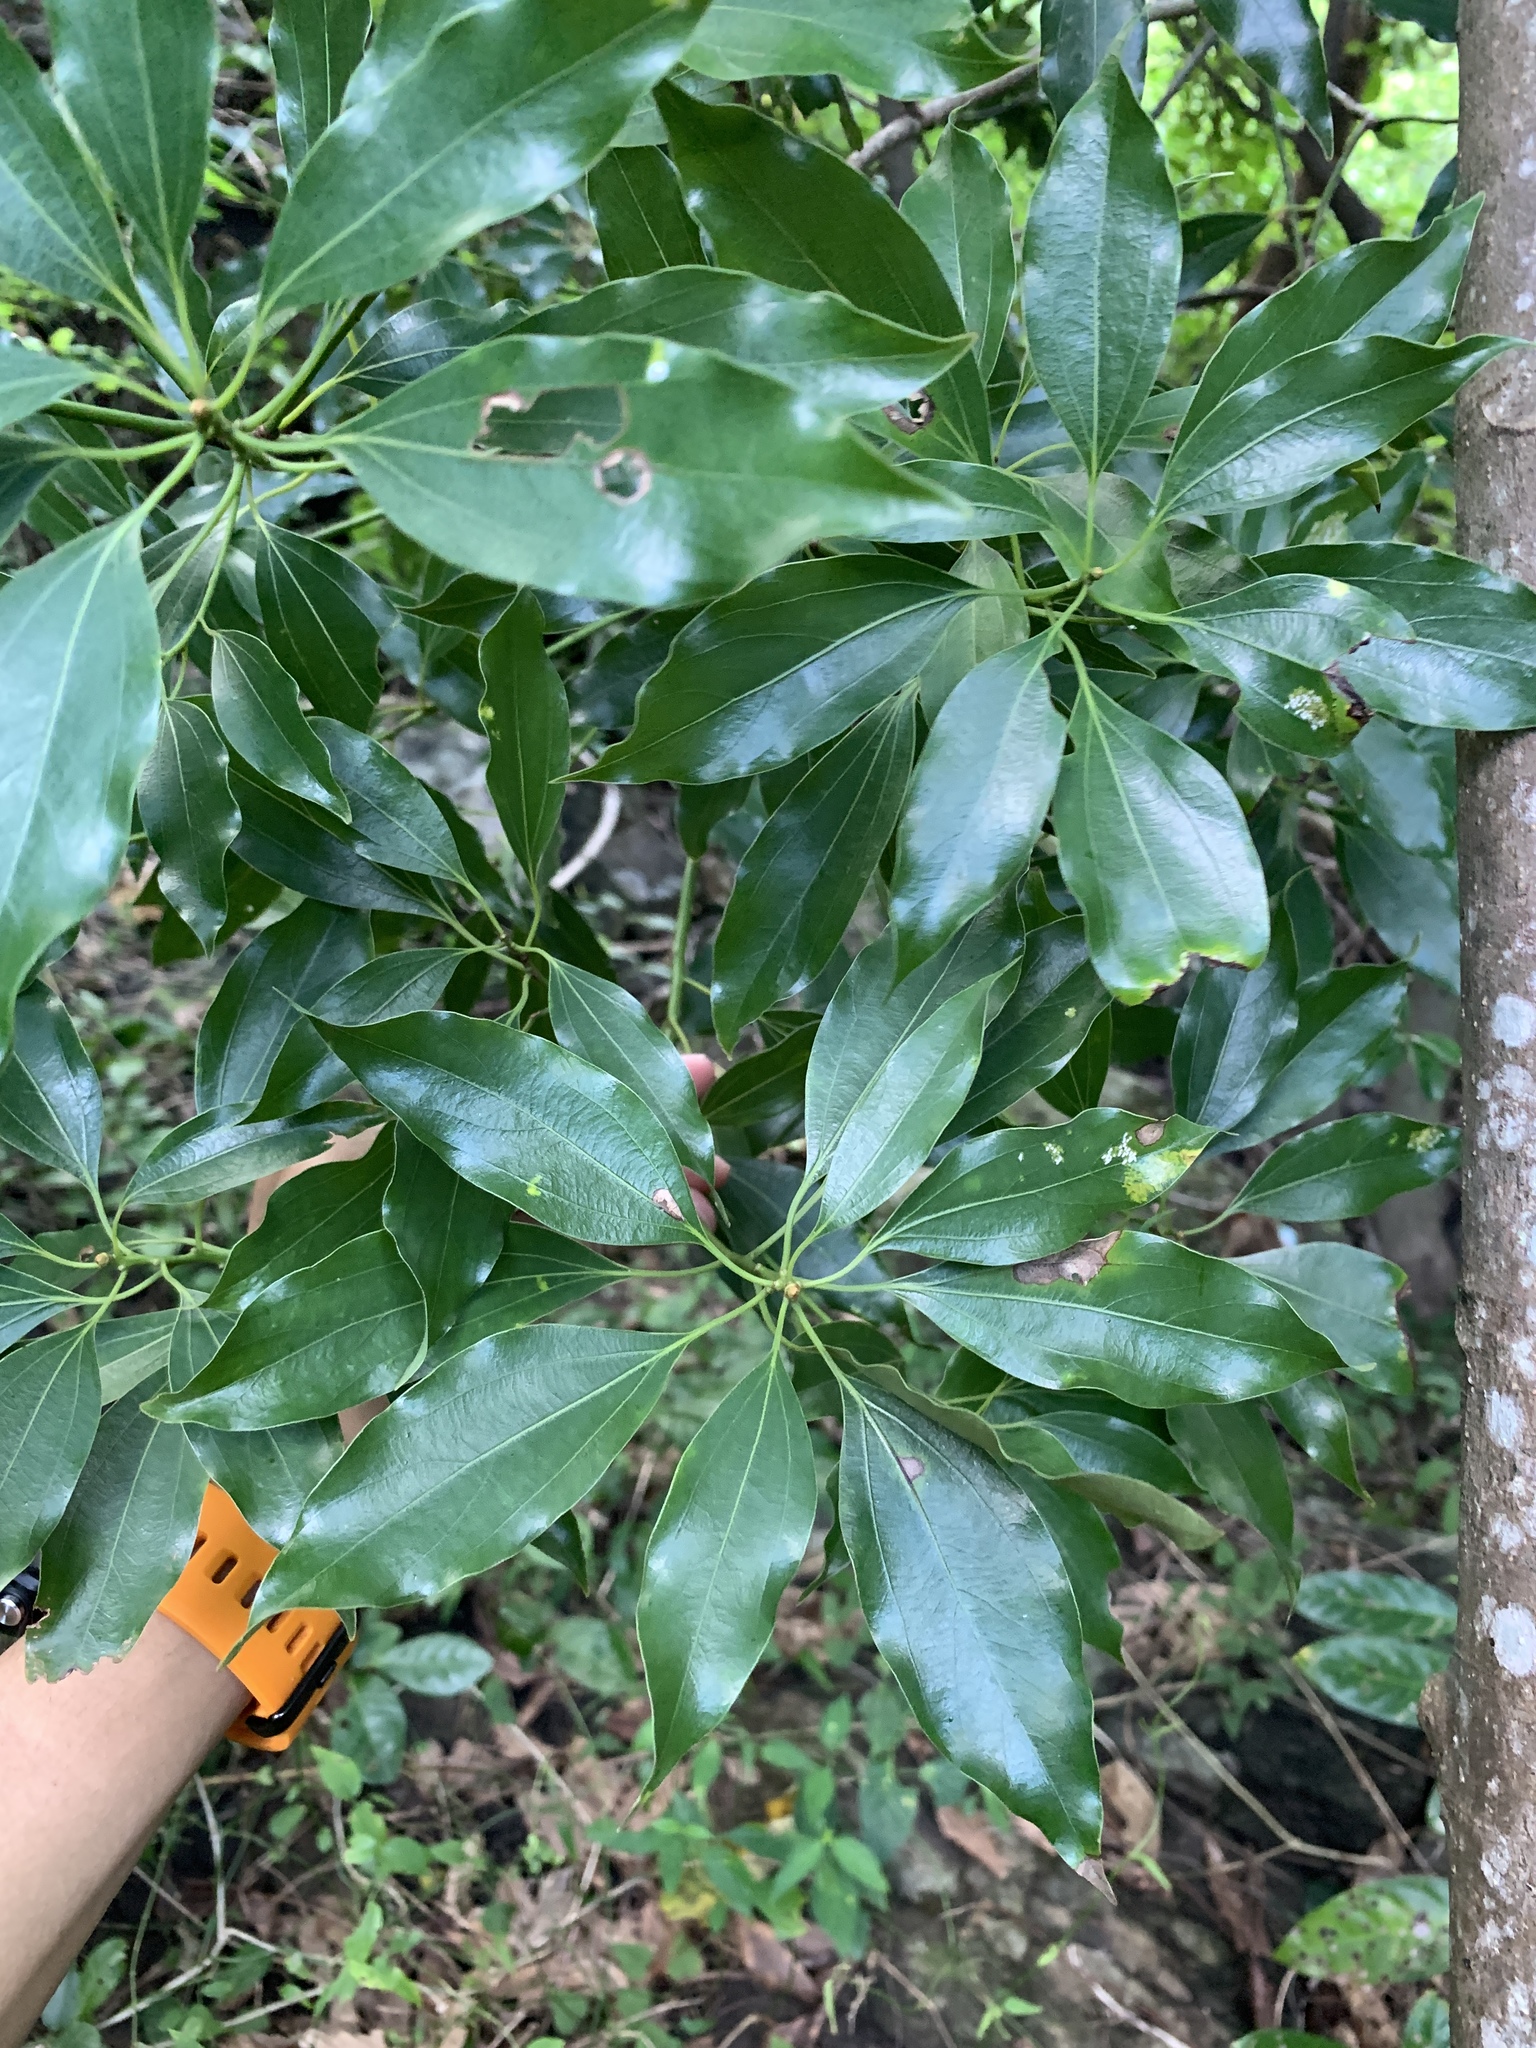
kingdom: Plantae
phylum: Tracheophyta
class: Magnoliopsida
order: Laurales
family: Lauraceae
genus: Neolitsea
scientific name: Neolitsea parvigemma
